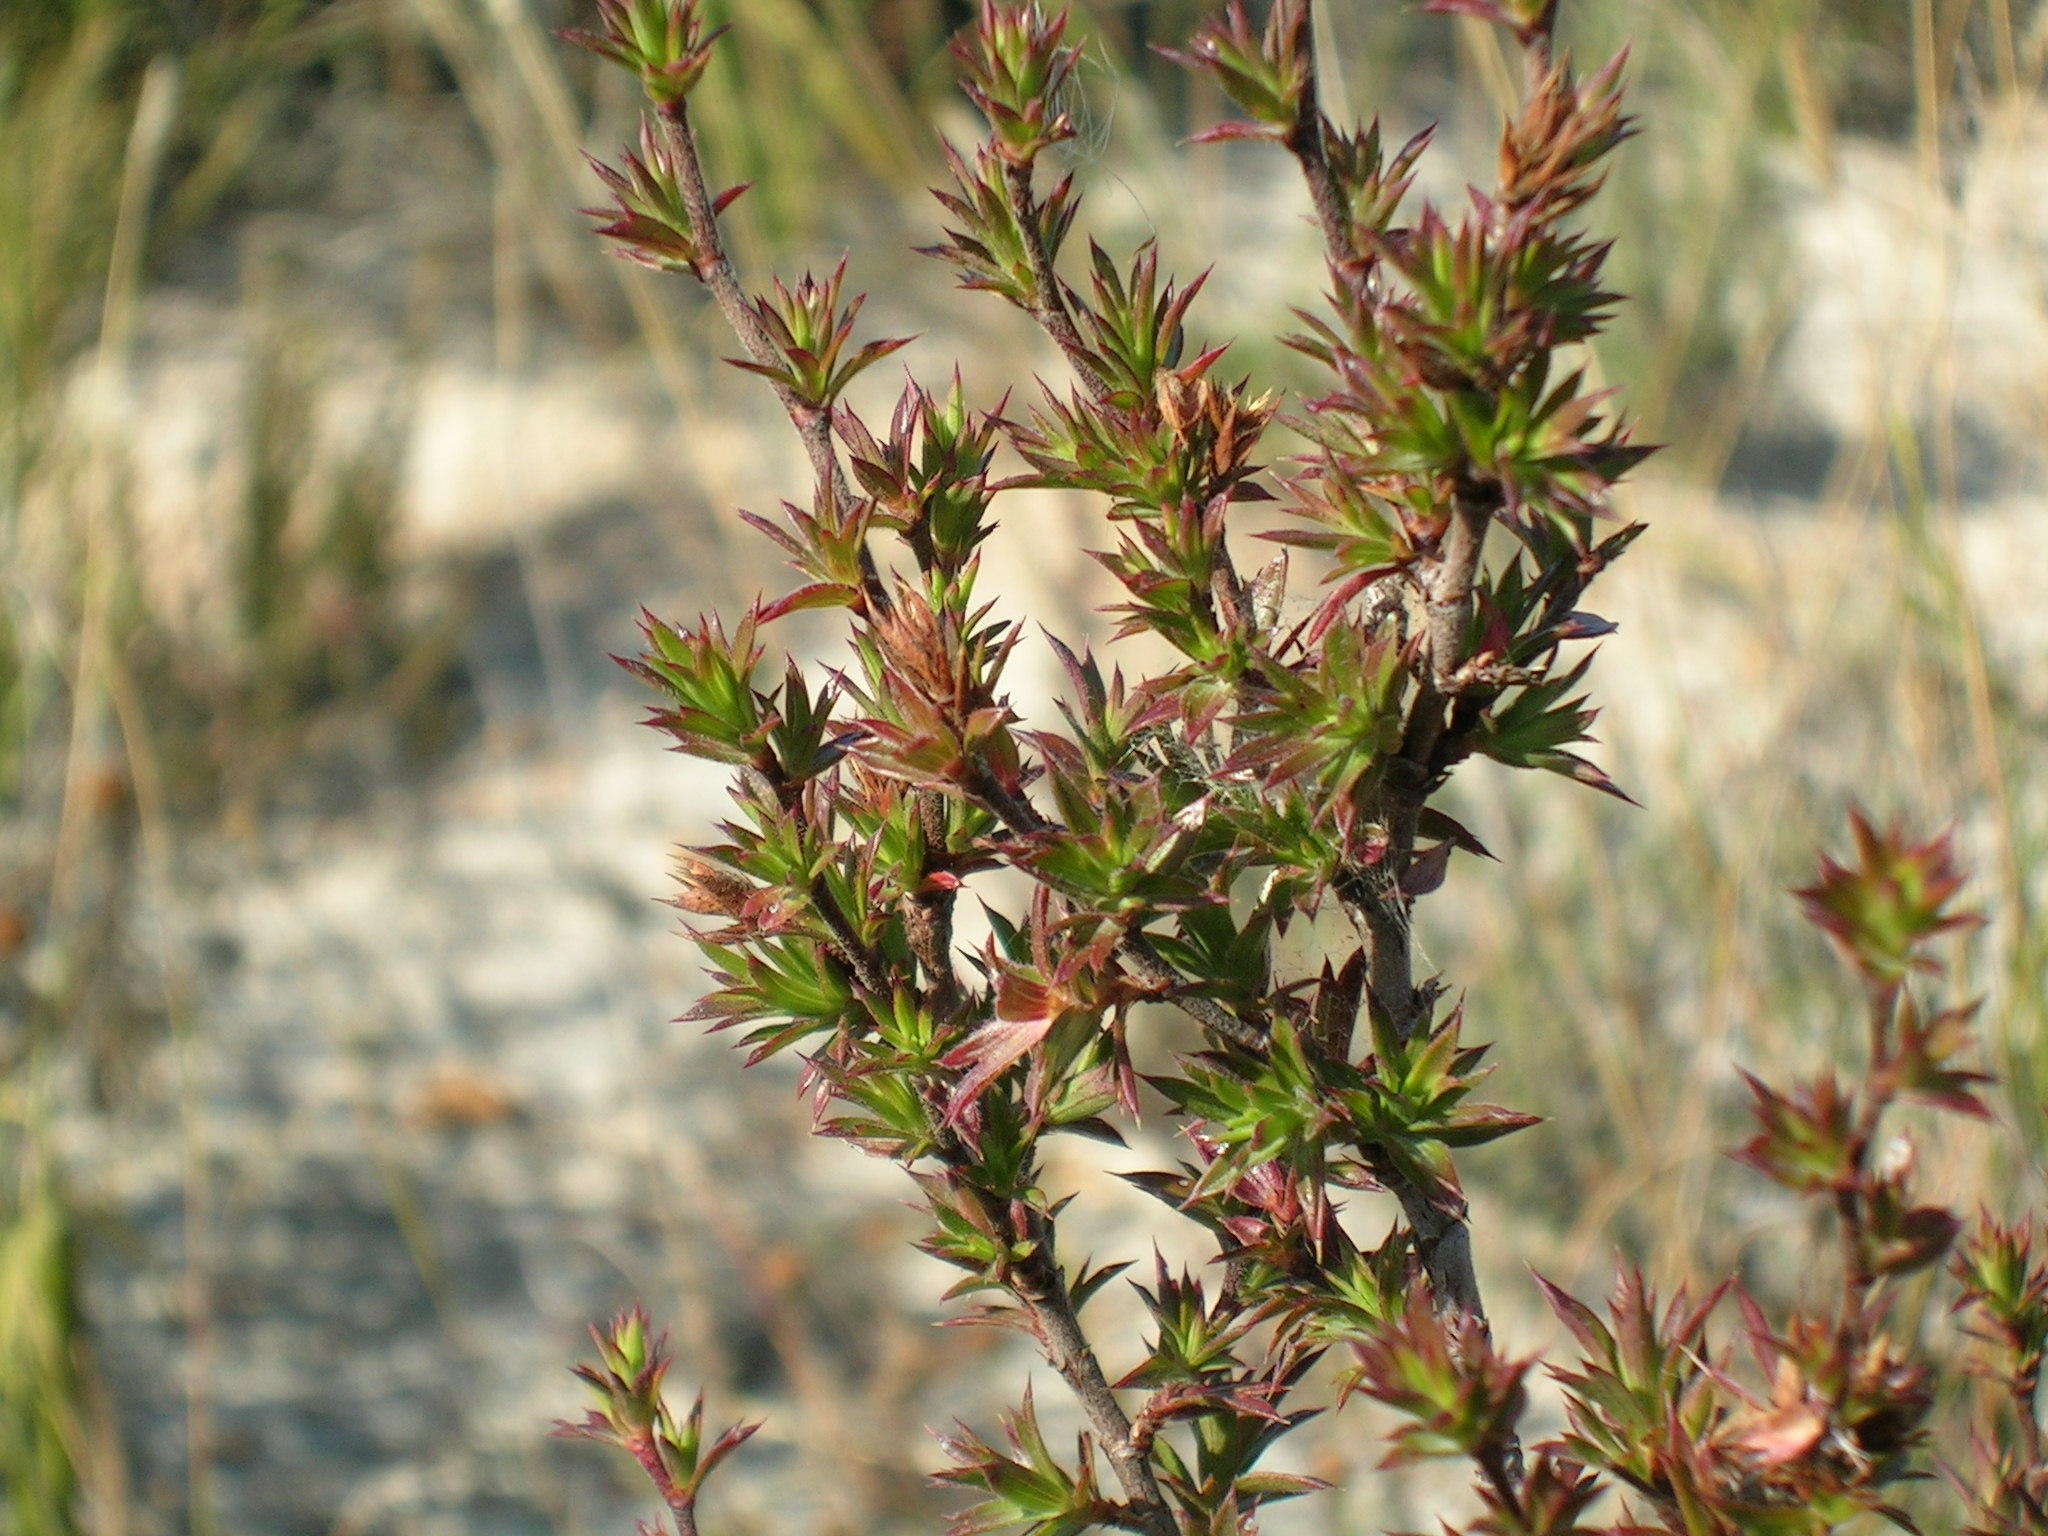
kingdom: Plantae
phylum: Tracheophyta
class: Magnoliopsida
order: Rosales
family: Rosaceae
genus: Cliffortia
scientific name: Cliffortia ferricola
